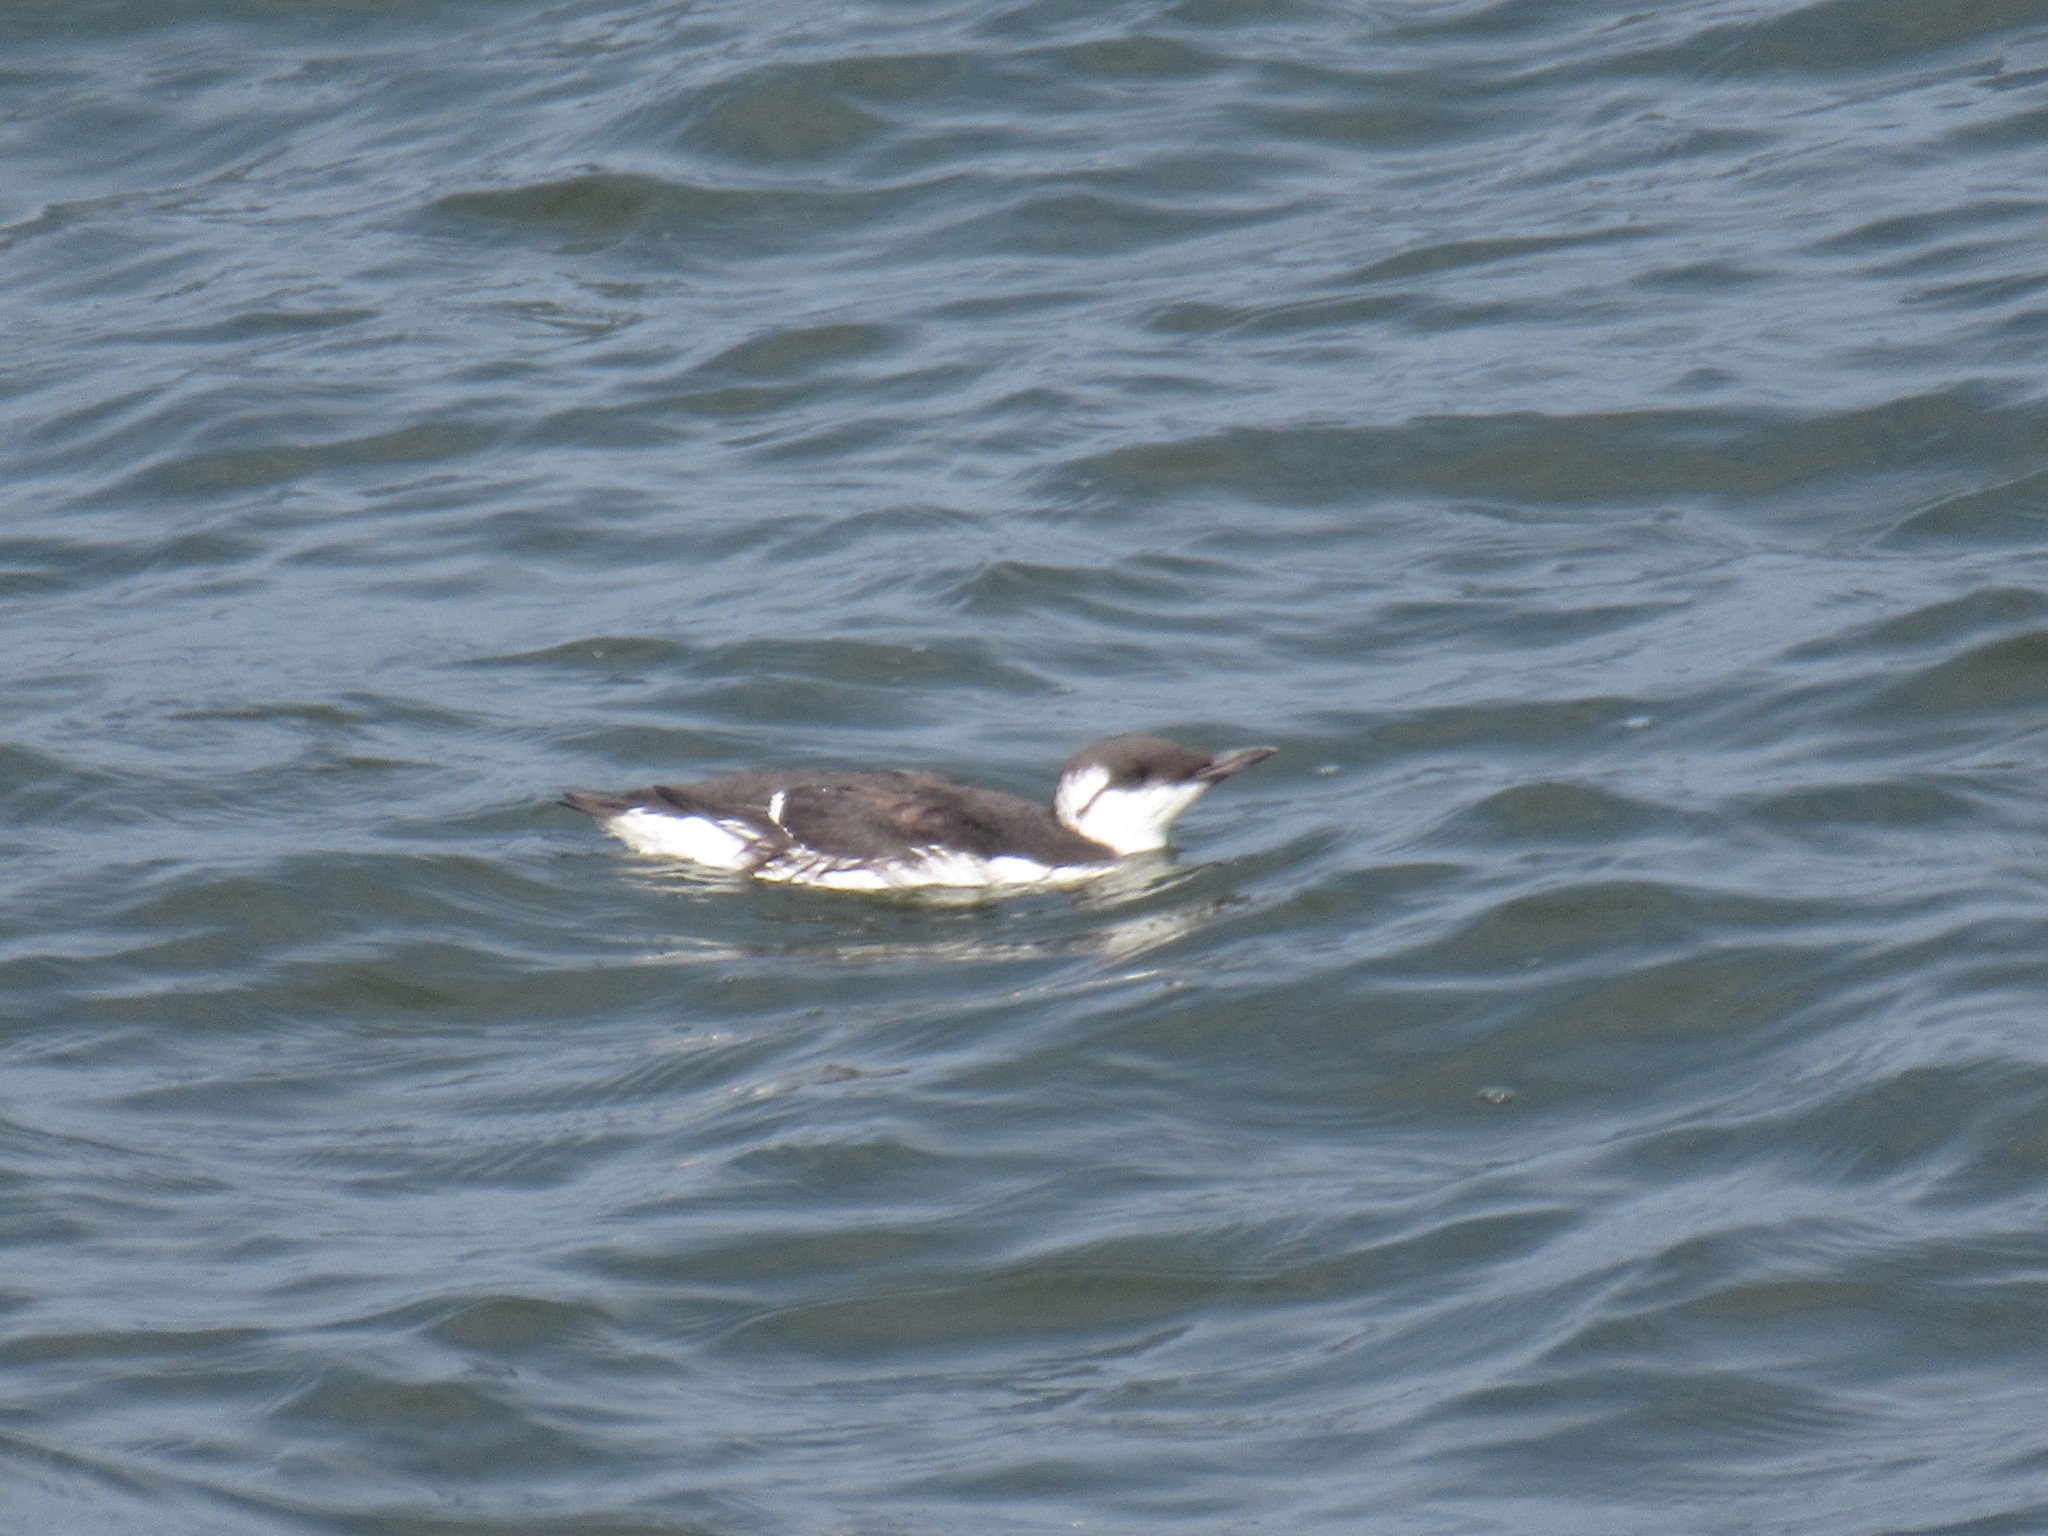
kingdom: Animalia
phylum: Chordata
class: Aves
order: Charadriiformes
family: Alcidae
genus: Uria
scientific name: Uria aalge
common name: Common murre
